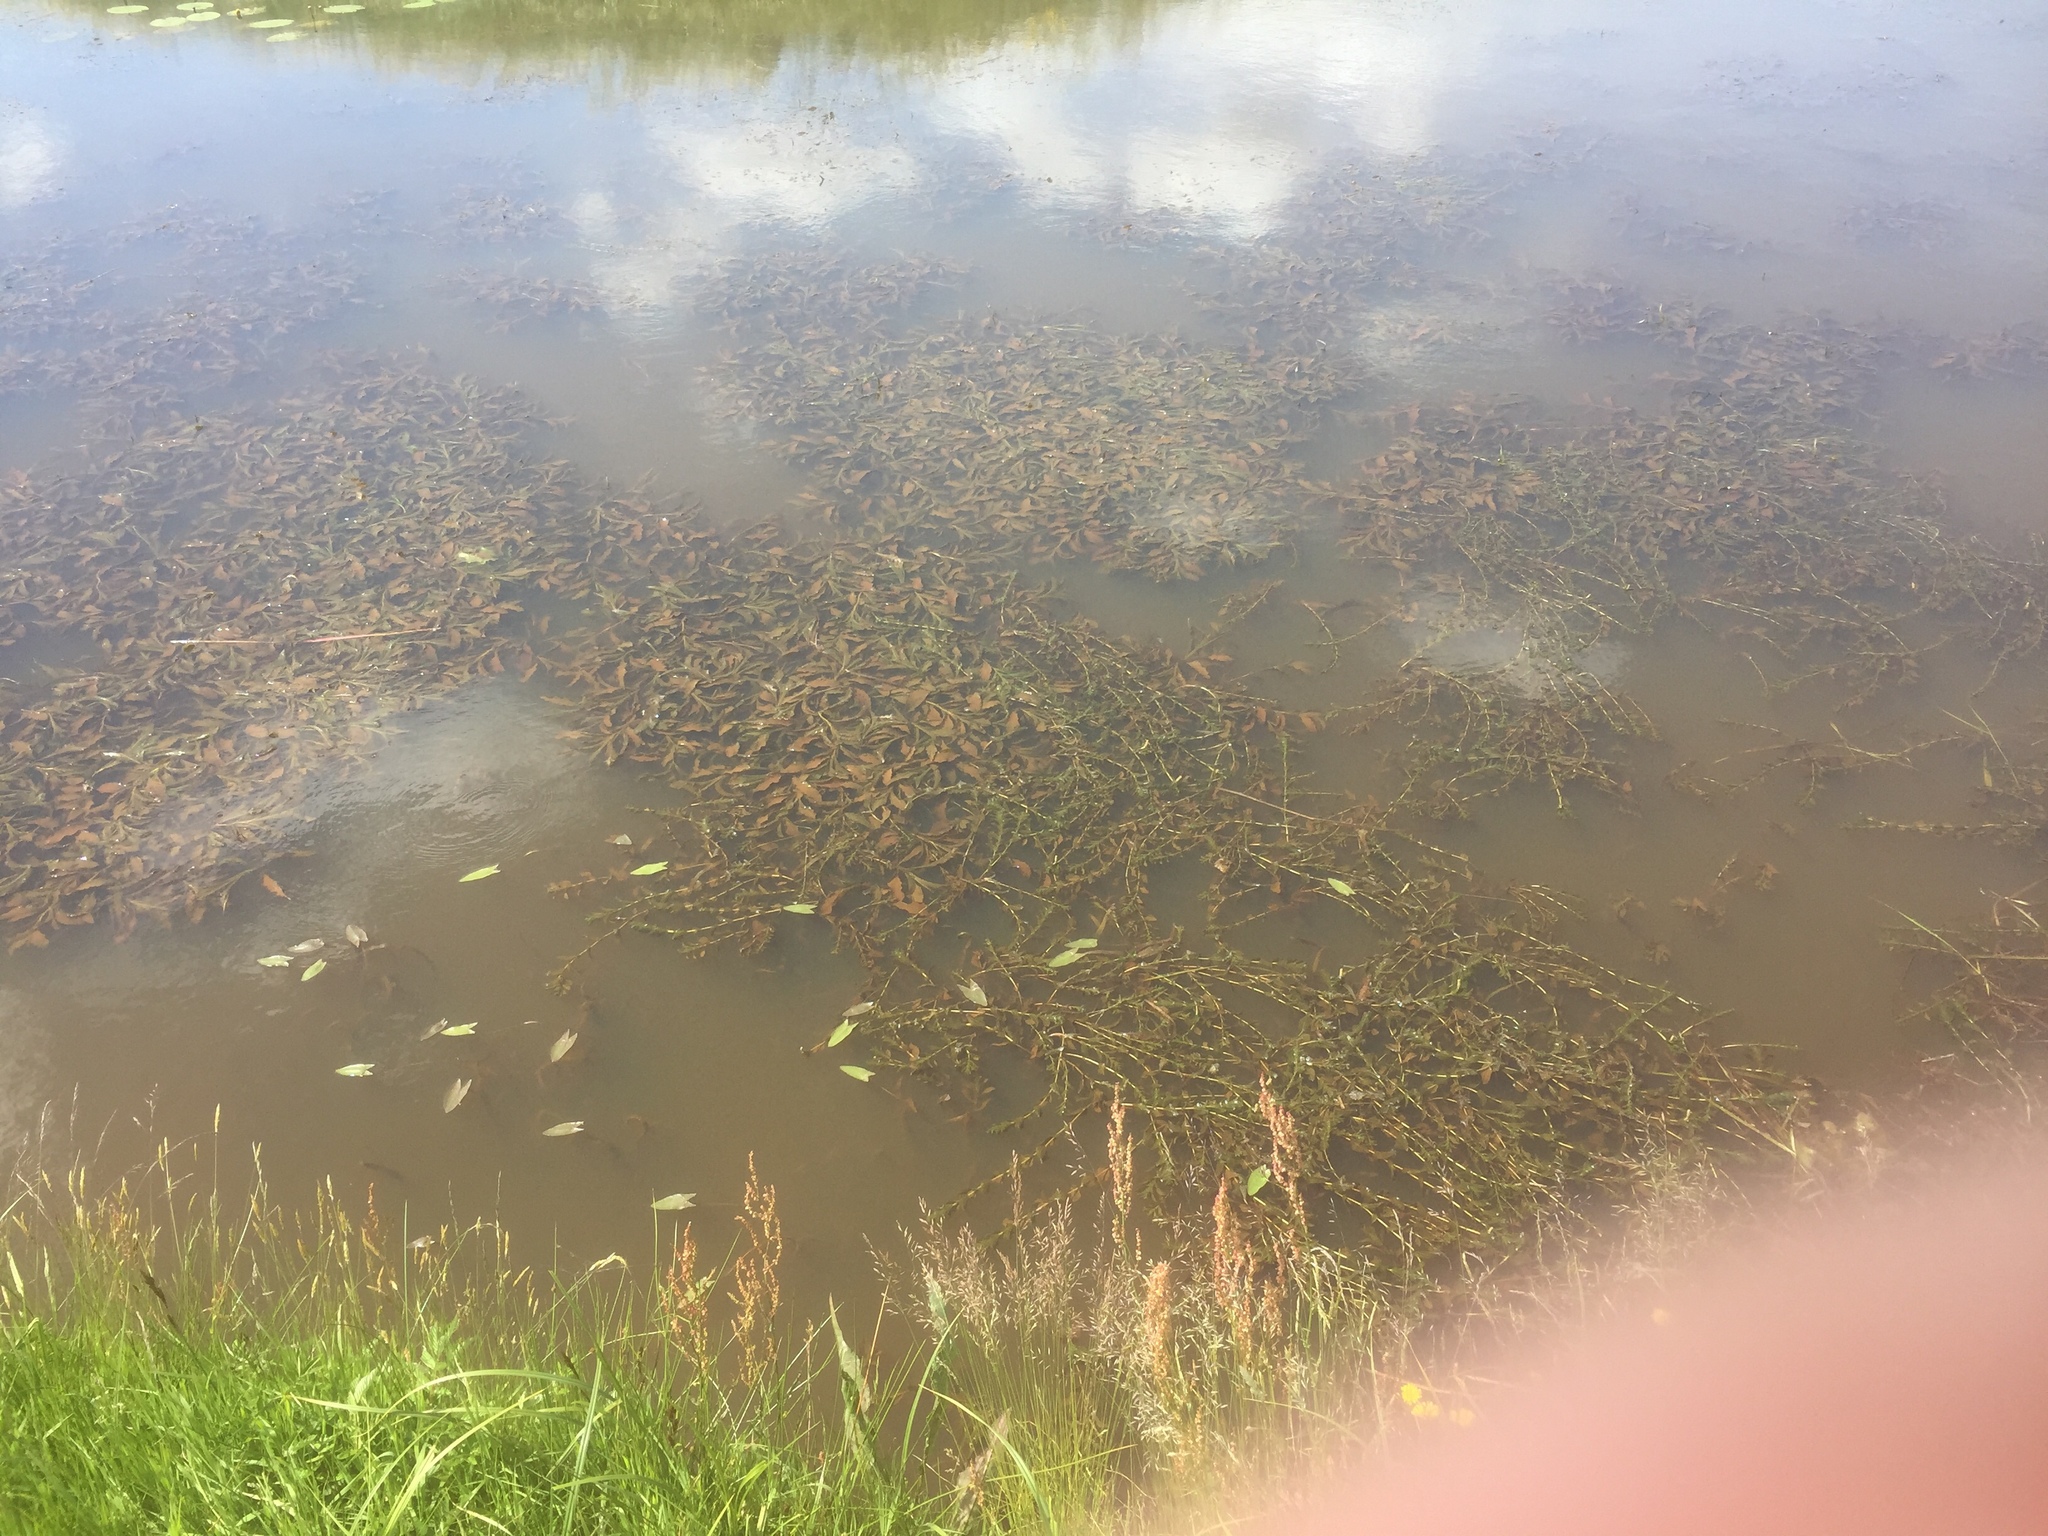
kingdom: Plantae
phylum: Tracheophyta
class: Liliopsida
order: Alismatales
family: Potamogetonaceae
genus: Potamogeton
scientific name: Potamogeton lucens
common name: Shining pondweed
